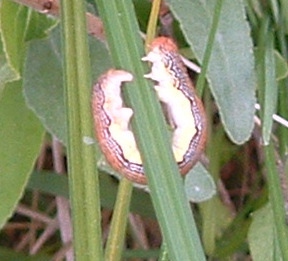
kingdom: Animalia
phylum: Arthropoda
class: Insecta
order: Lepidoptera
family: Geometridae
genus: Erannis
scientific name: Erannis tiliaria
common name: Linden looper
